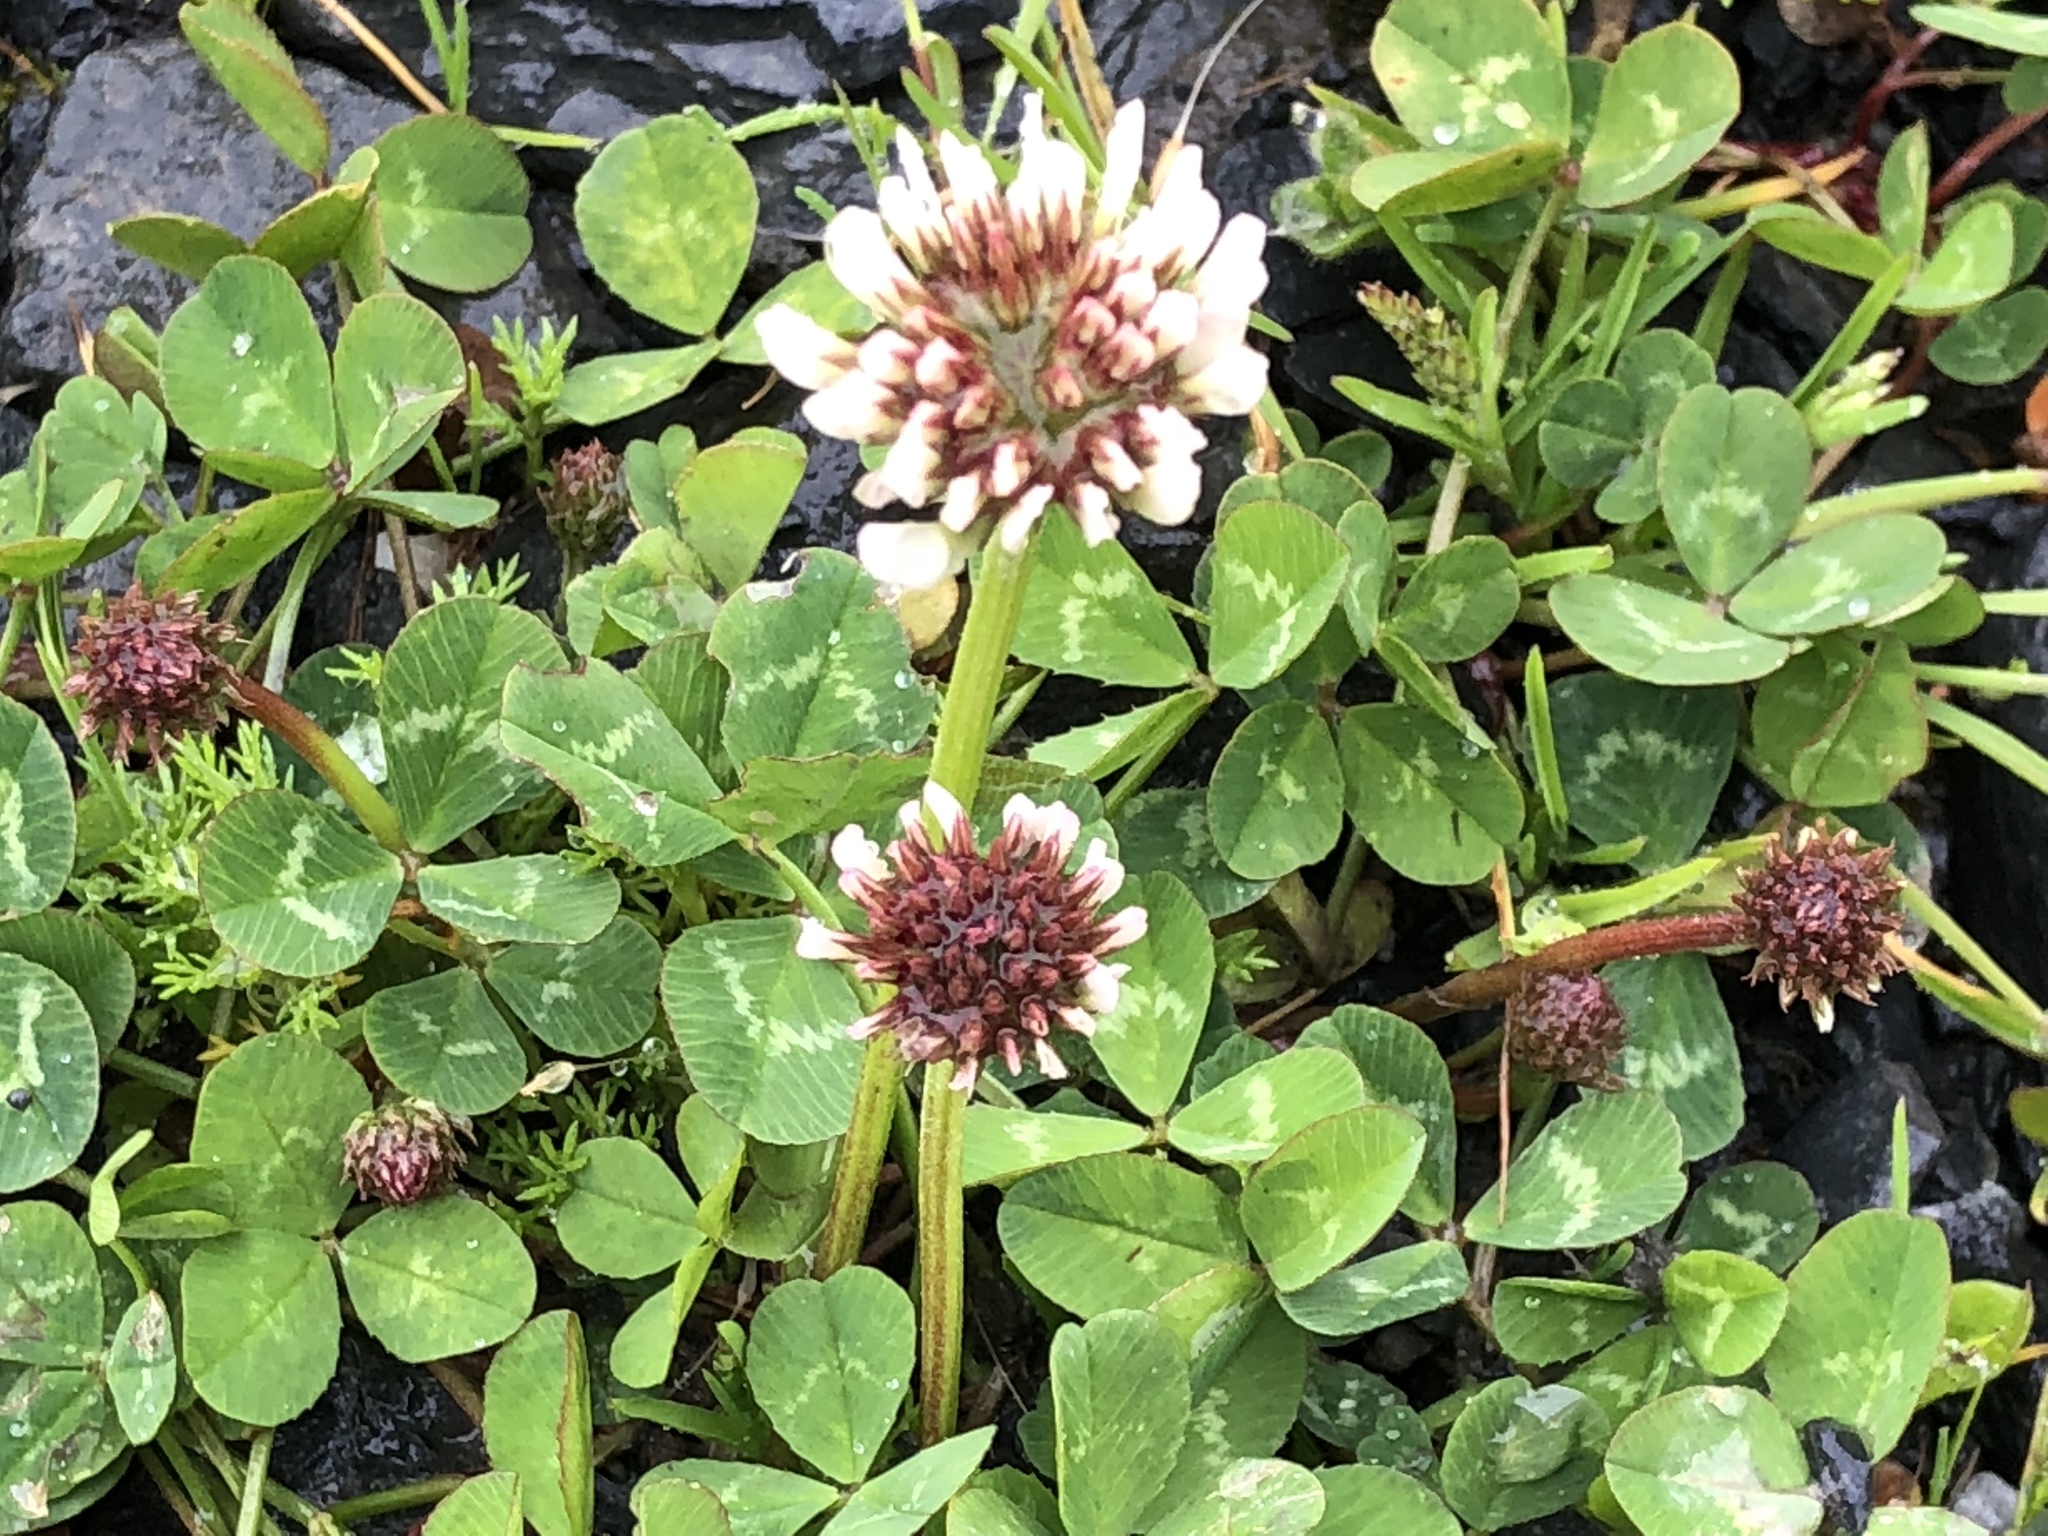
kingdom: Plantae
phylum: Tracheophyta
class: Magnoliopsida
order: Fabales
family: Fabaceae
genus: Trifolium
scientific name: Trifolium repens
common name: White clover
